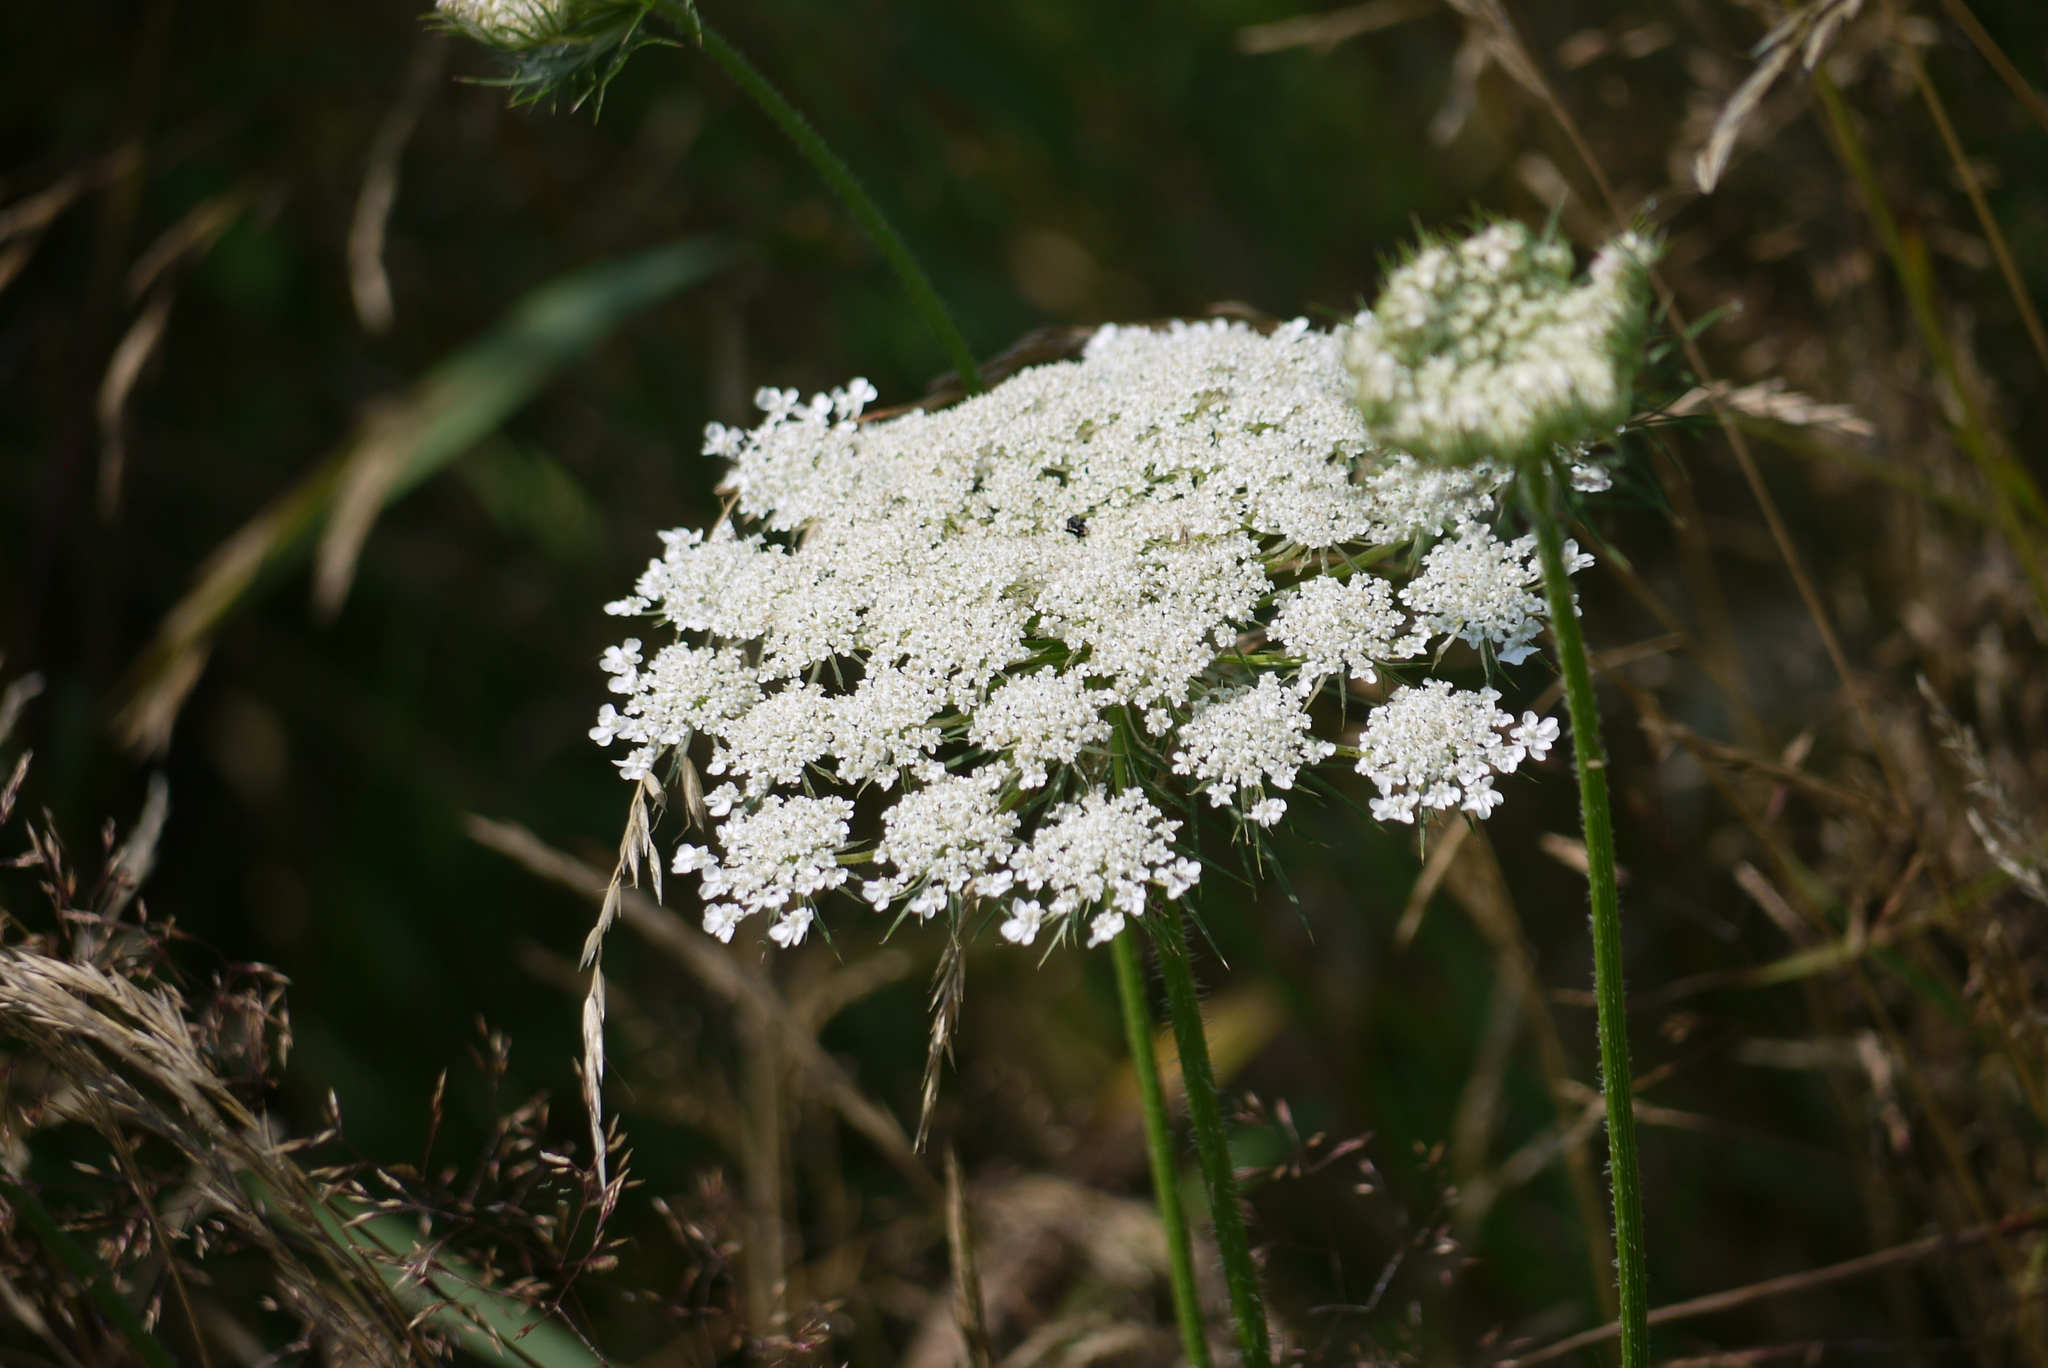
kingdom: Plantae
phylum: Tracheophyta
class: Magnoliopsida
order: Apiales
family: Apiaceae
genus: Daucus
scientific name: Daucus carota
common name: Wild carrot
